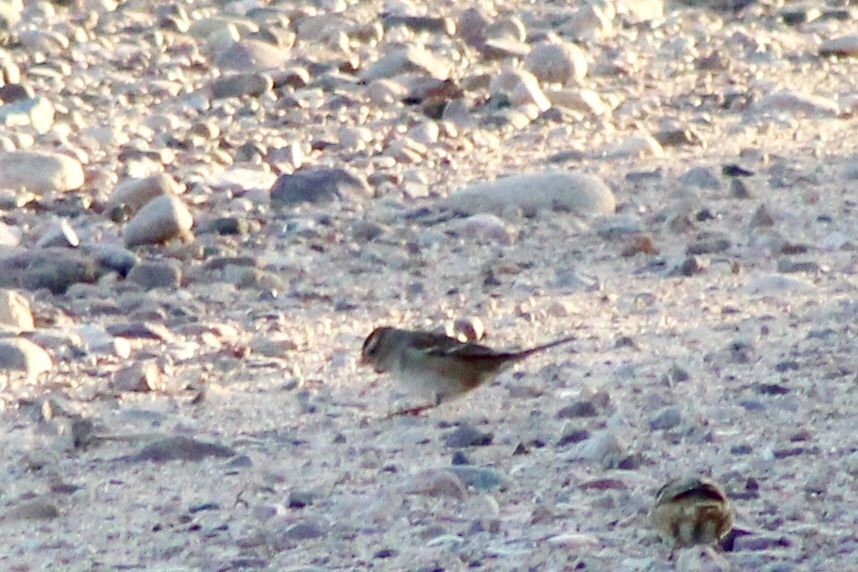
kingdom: Animalia
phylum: Chordata
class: Aves
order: Passeriformes
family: Passerellidae
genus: Zonotrichia
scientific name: Zonotrichia leucophrys
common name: White-crowned sparrow
